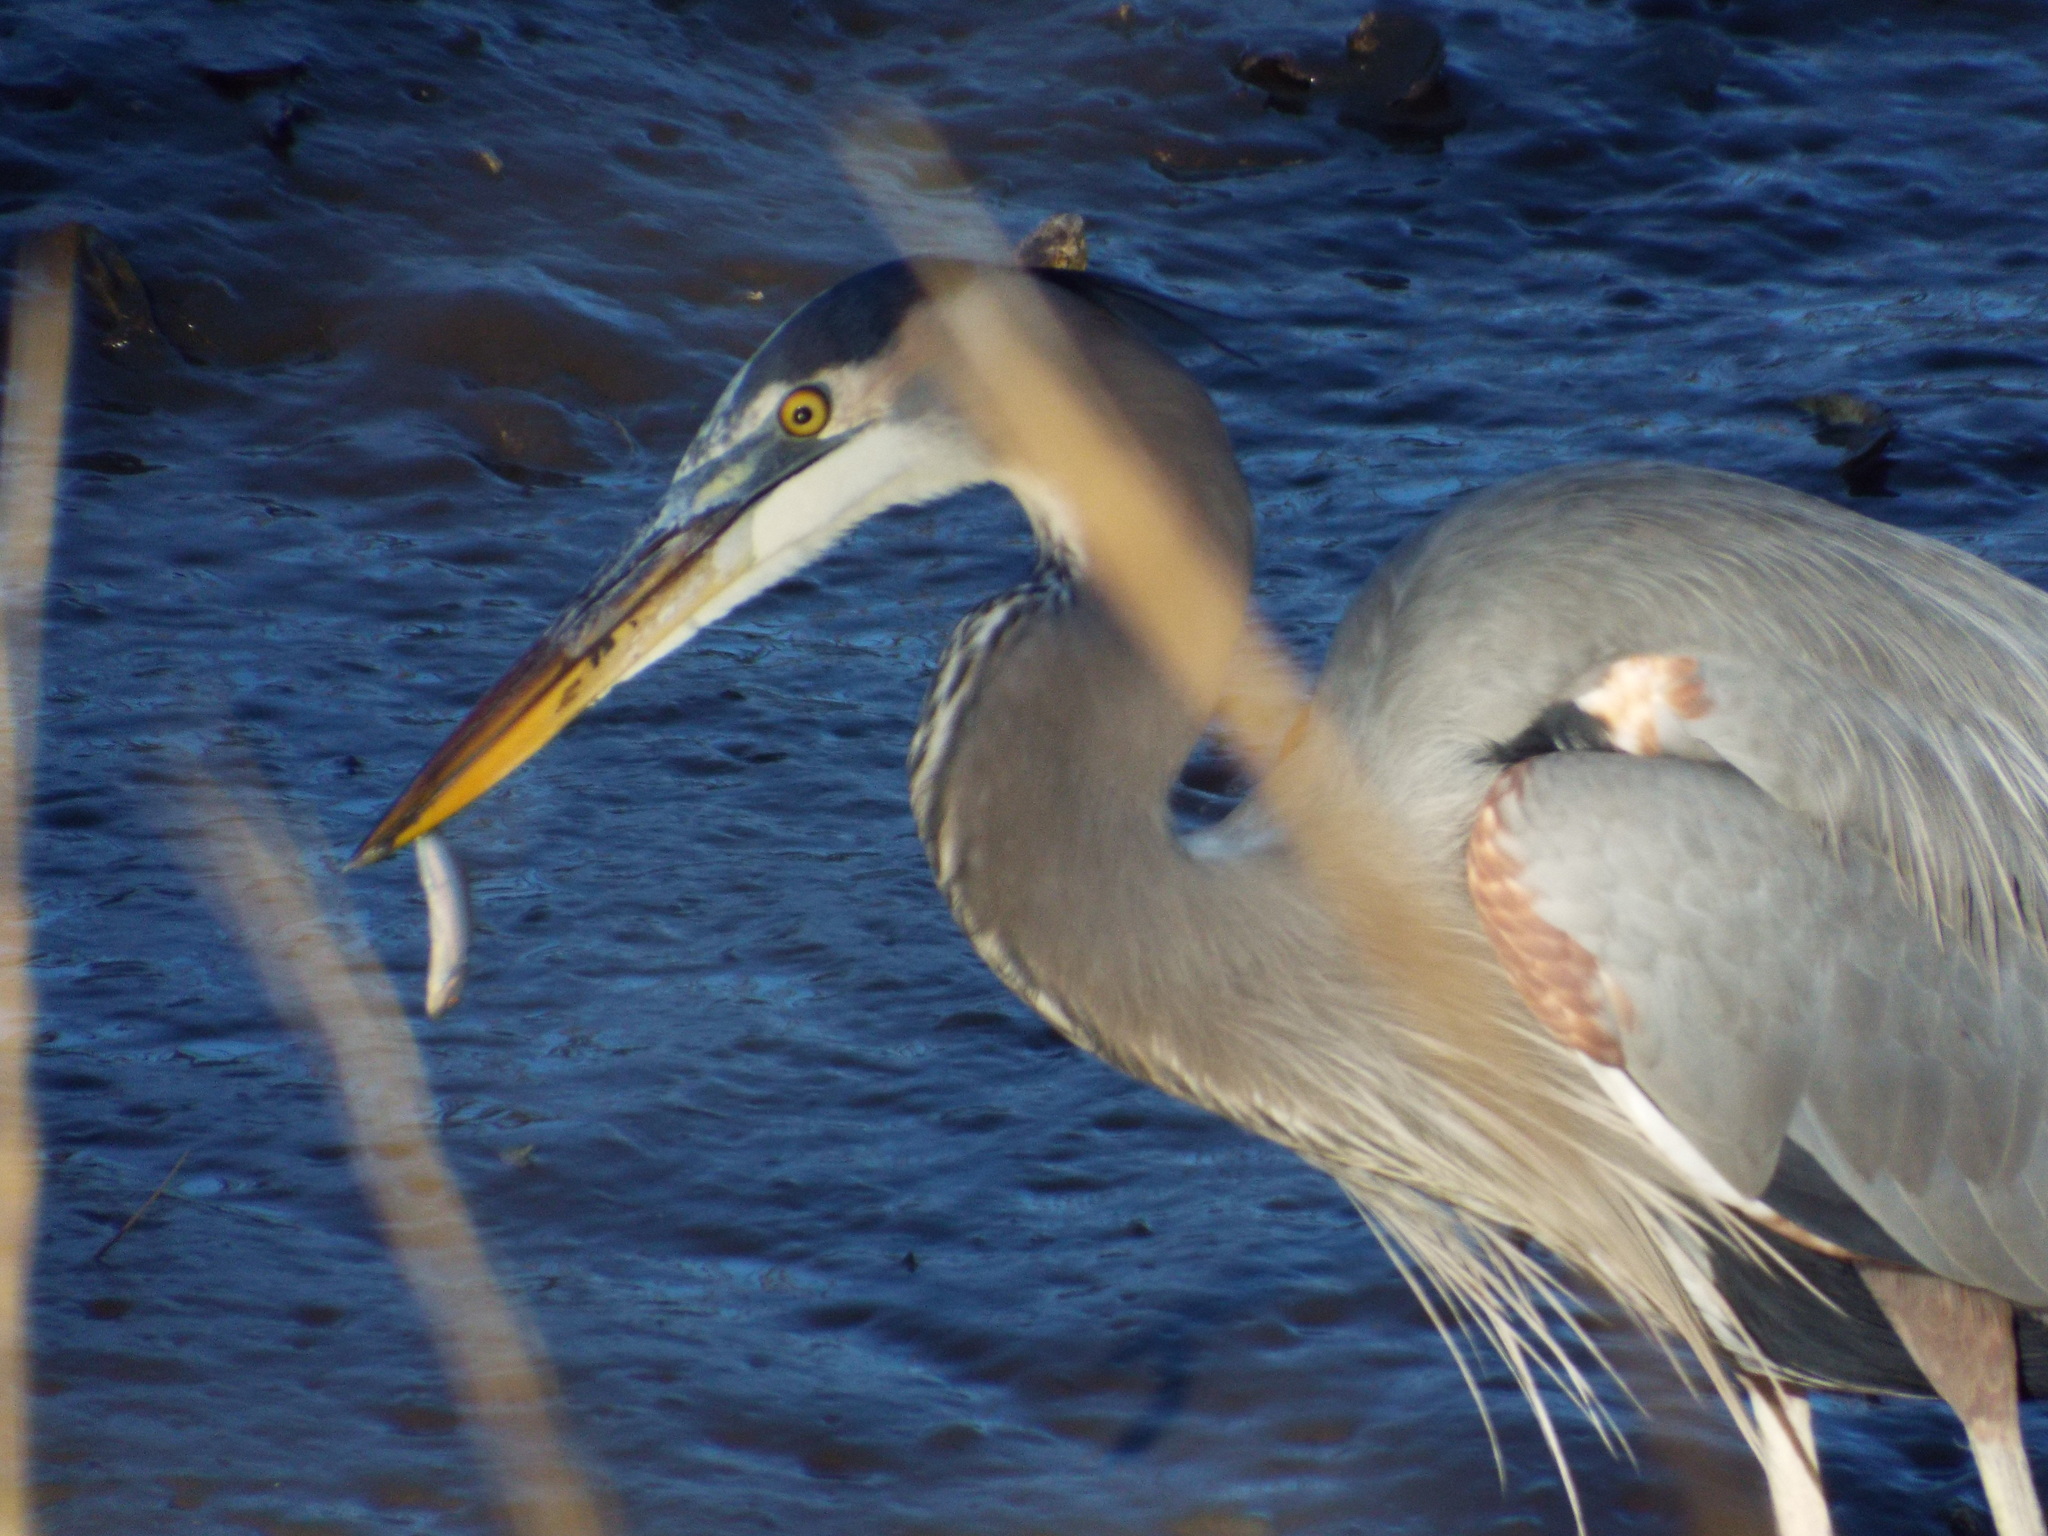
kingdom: Animalia
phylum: Chordata
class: Aves
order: Pelecaniformes
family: Ardeidae
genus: Ardea
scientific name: Ardea herodias
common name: Great blue heron
